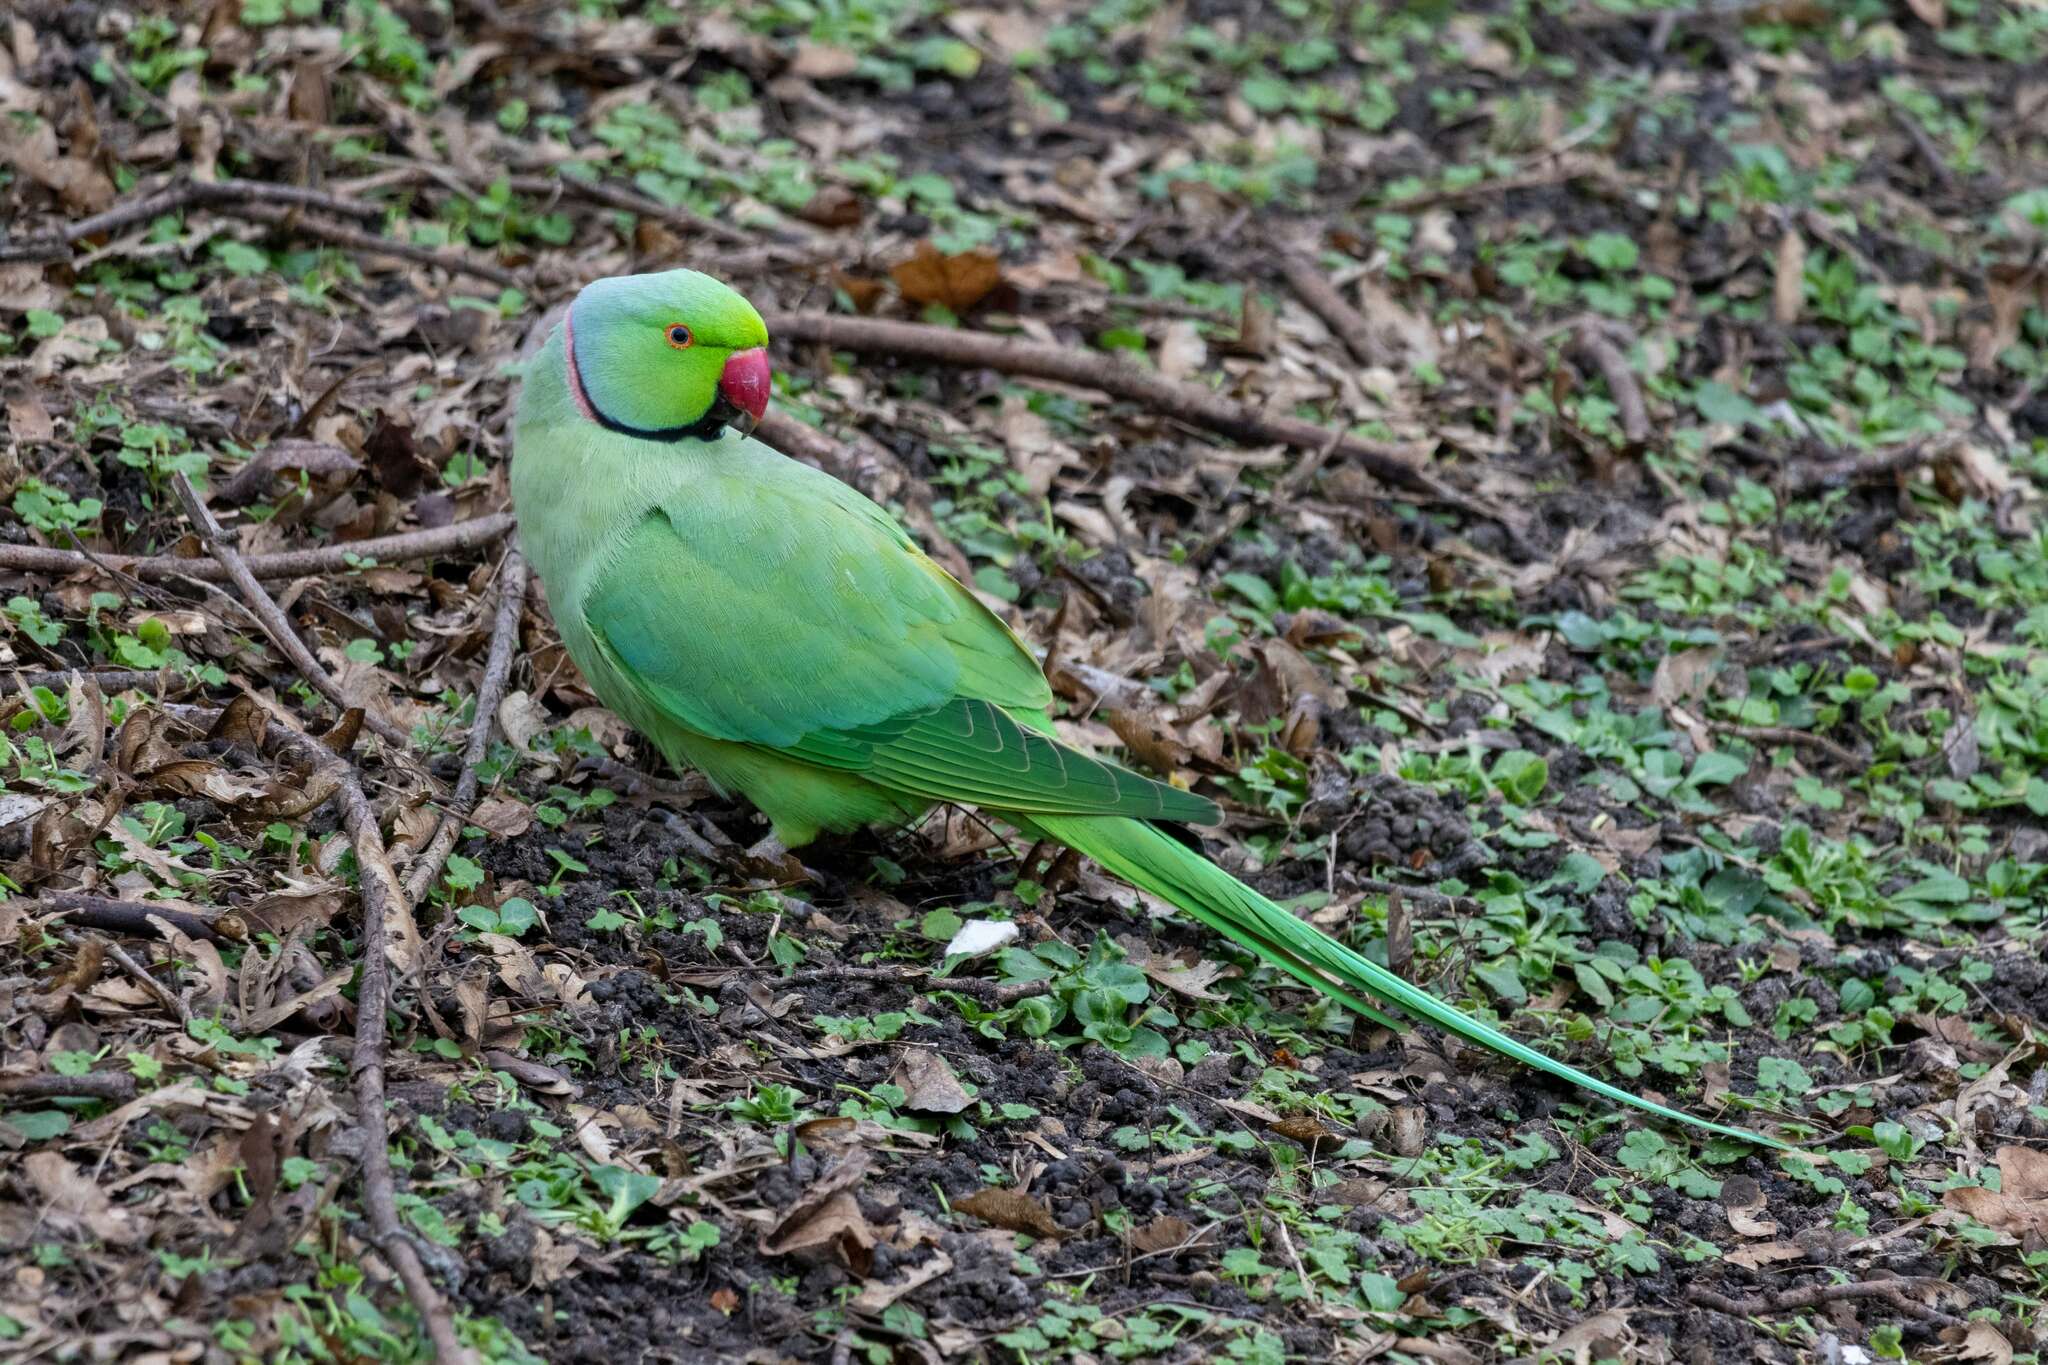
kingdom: Animalia
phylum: Chordata
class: Aves
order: Psittaciformes
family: Psittacidae
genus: Psittacula
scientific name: Psittacula krameri
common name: Rose-ringed parakeet
